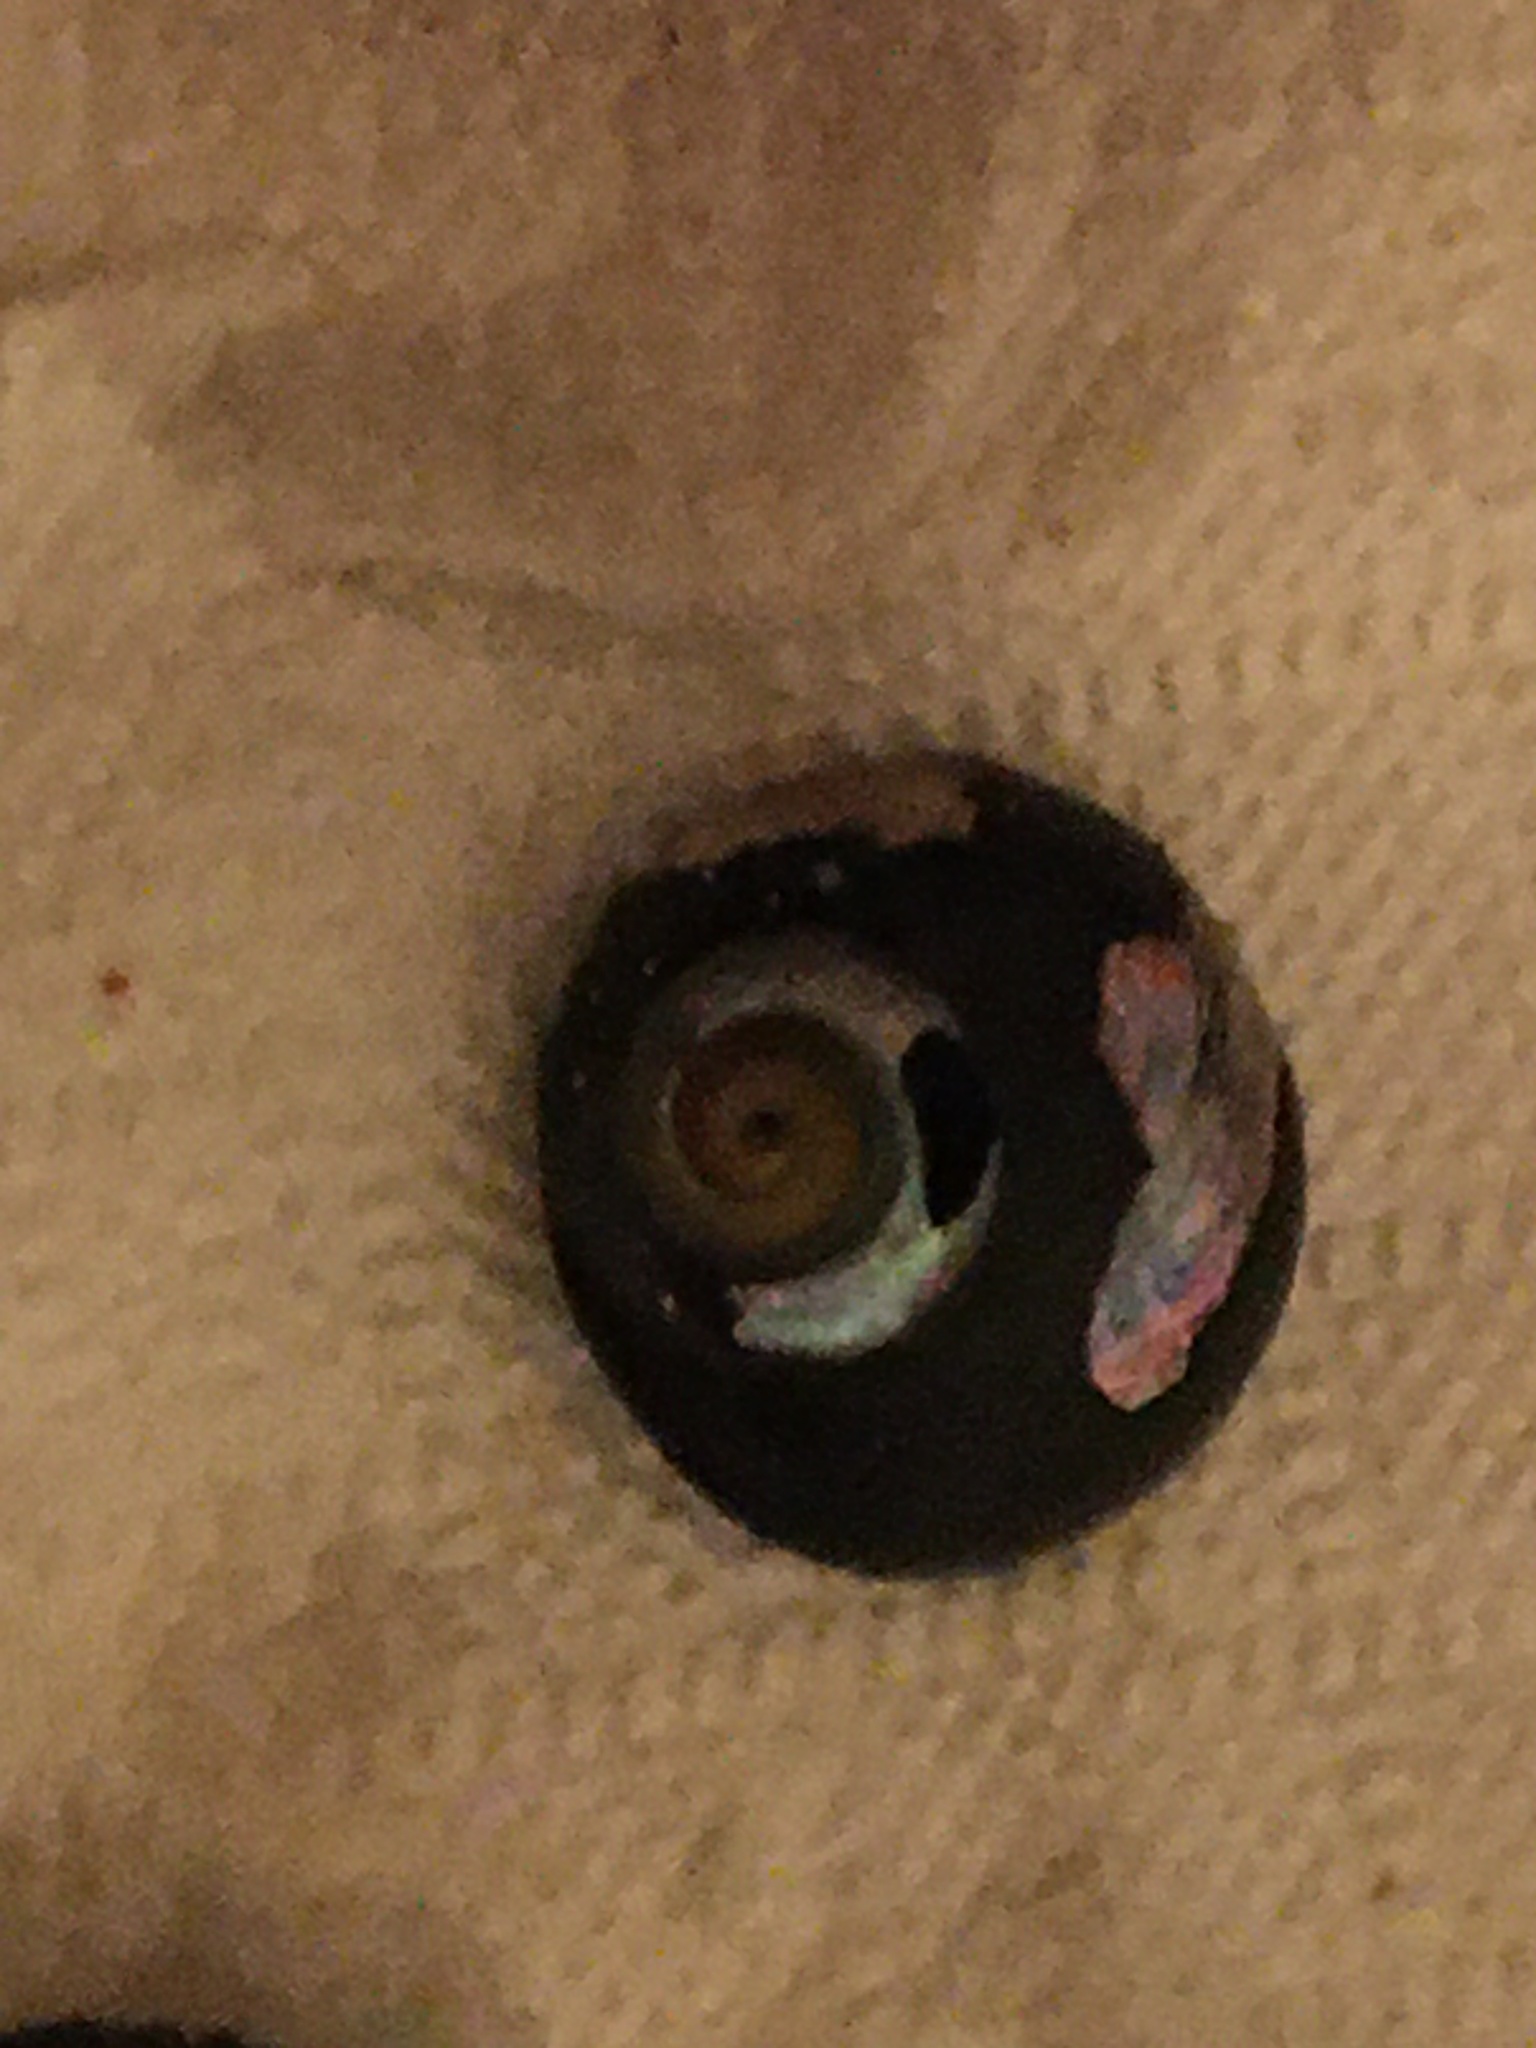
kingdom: Animalia
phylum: Mollusca
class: Gastropoda
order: Trochida
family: Tegulidae
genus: Tegula
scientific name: Tegula funebralis
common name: Black tegula
